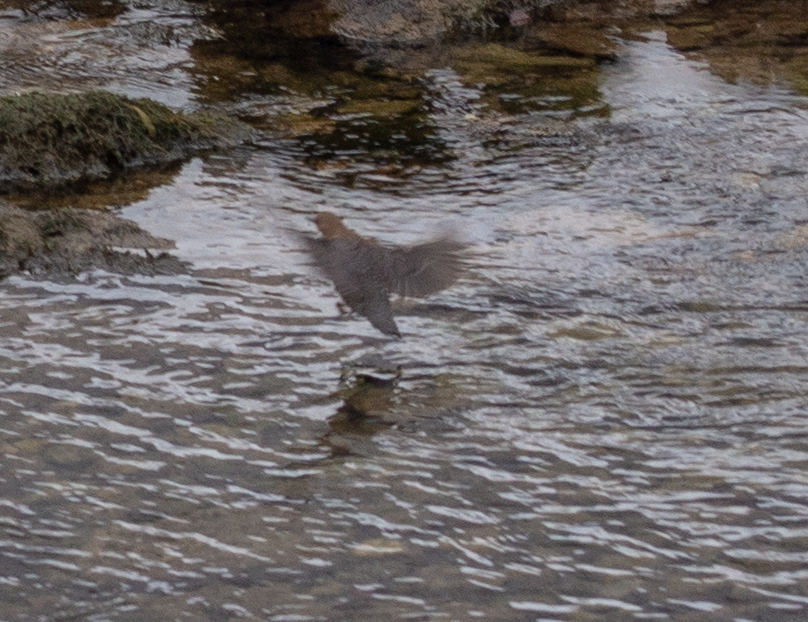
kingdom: Animalia
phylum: Chordata
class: Aves
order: Passeriformes
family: Cinclidae
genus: Cinclus
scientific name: Cinclus cinclus
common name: White-throated dipper
